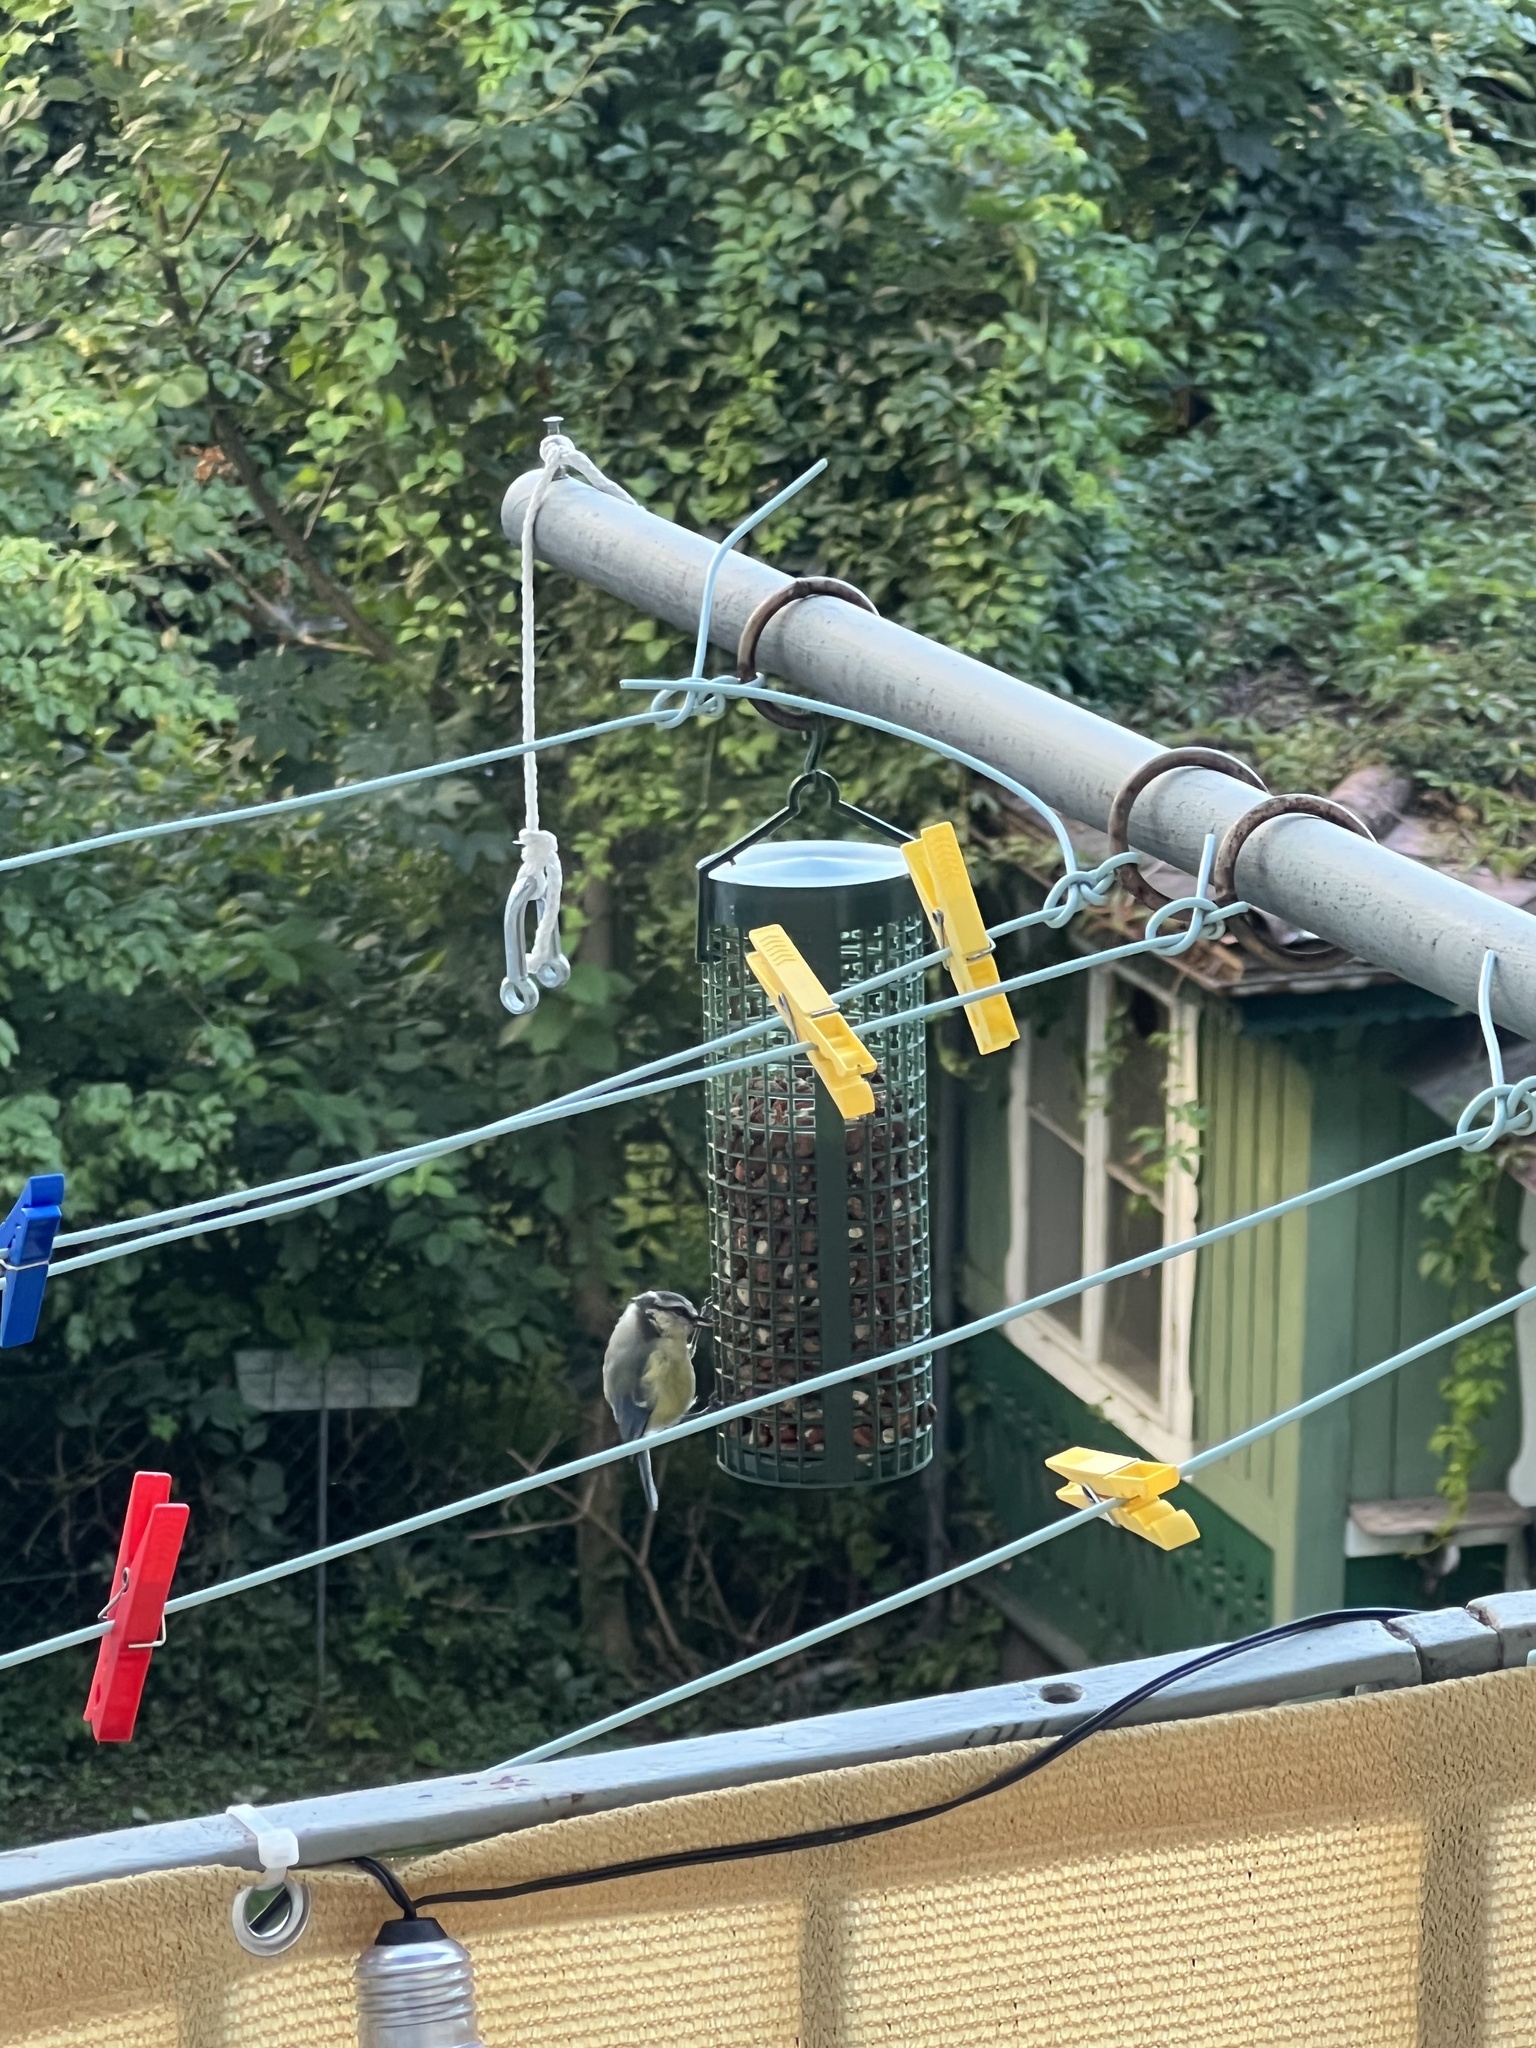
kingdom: Animalia
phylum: Chordata
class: Aves
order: Passeriformes
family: Paridae
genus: Cyanistes
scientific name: Cyanistes caeruleus
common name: Eurasian blue tit
